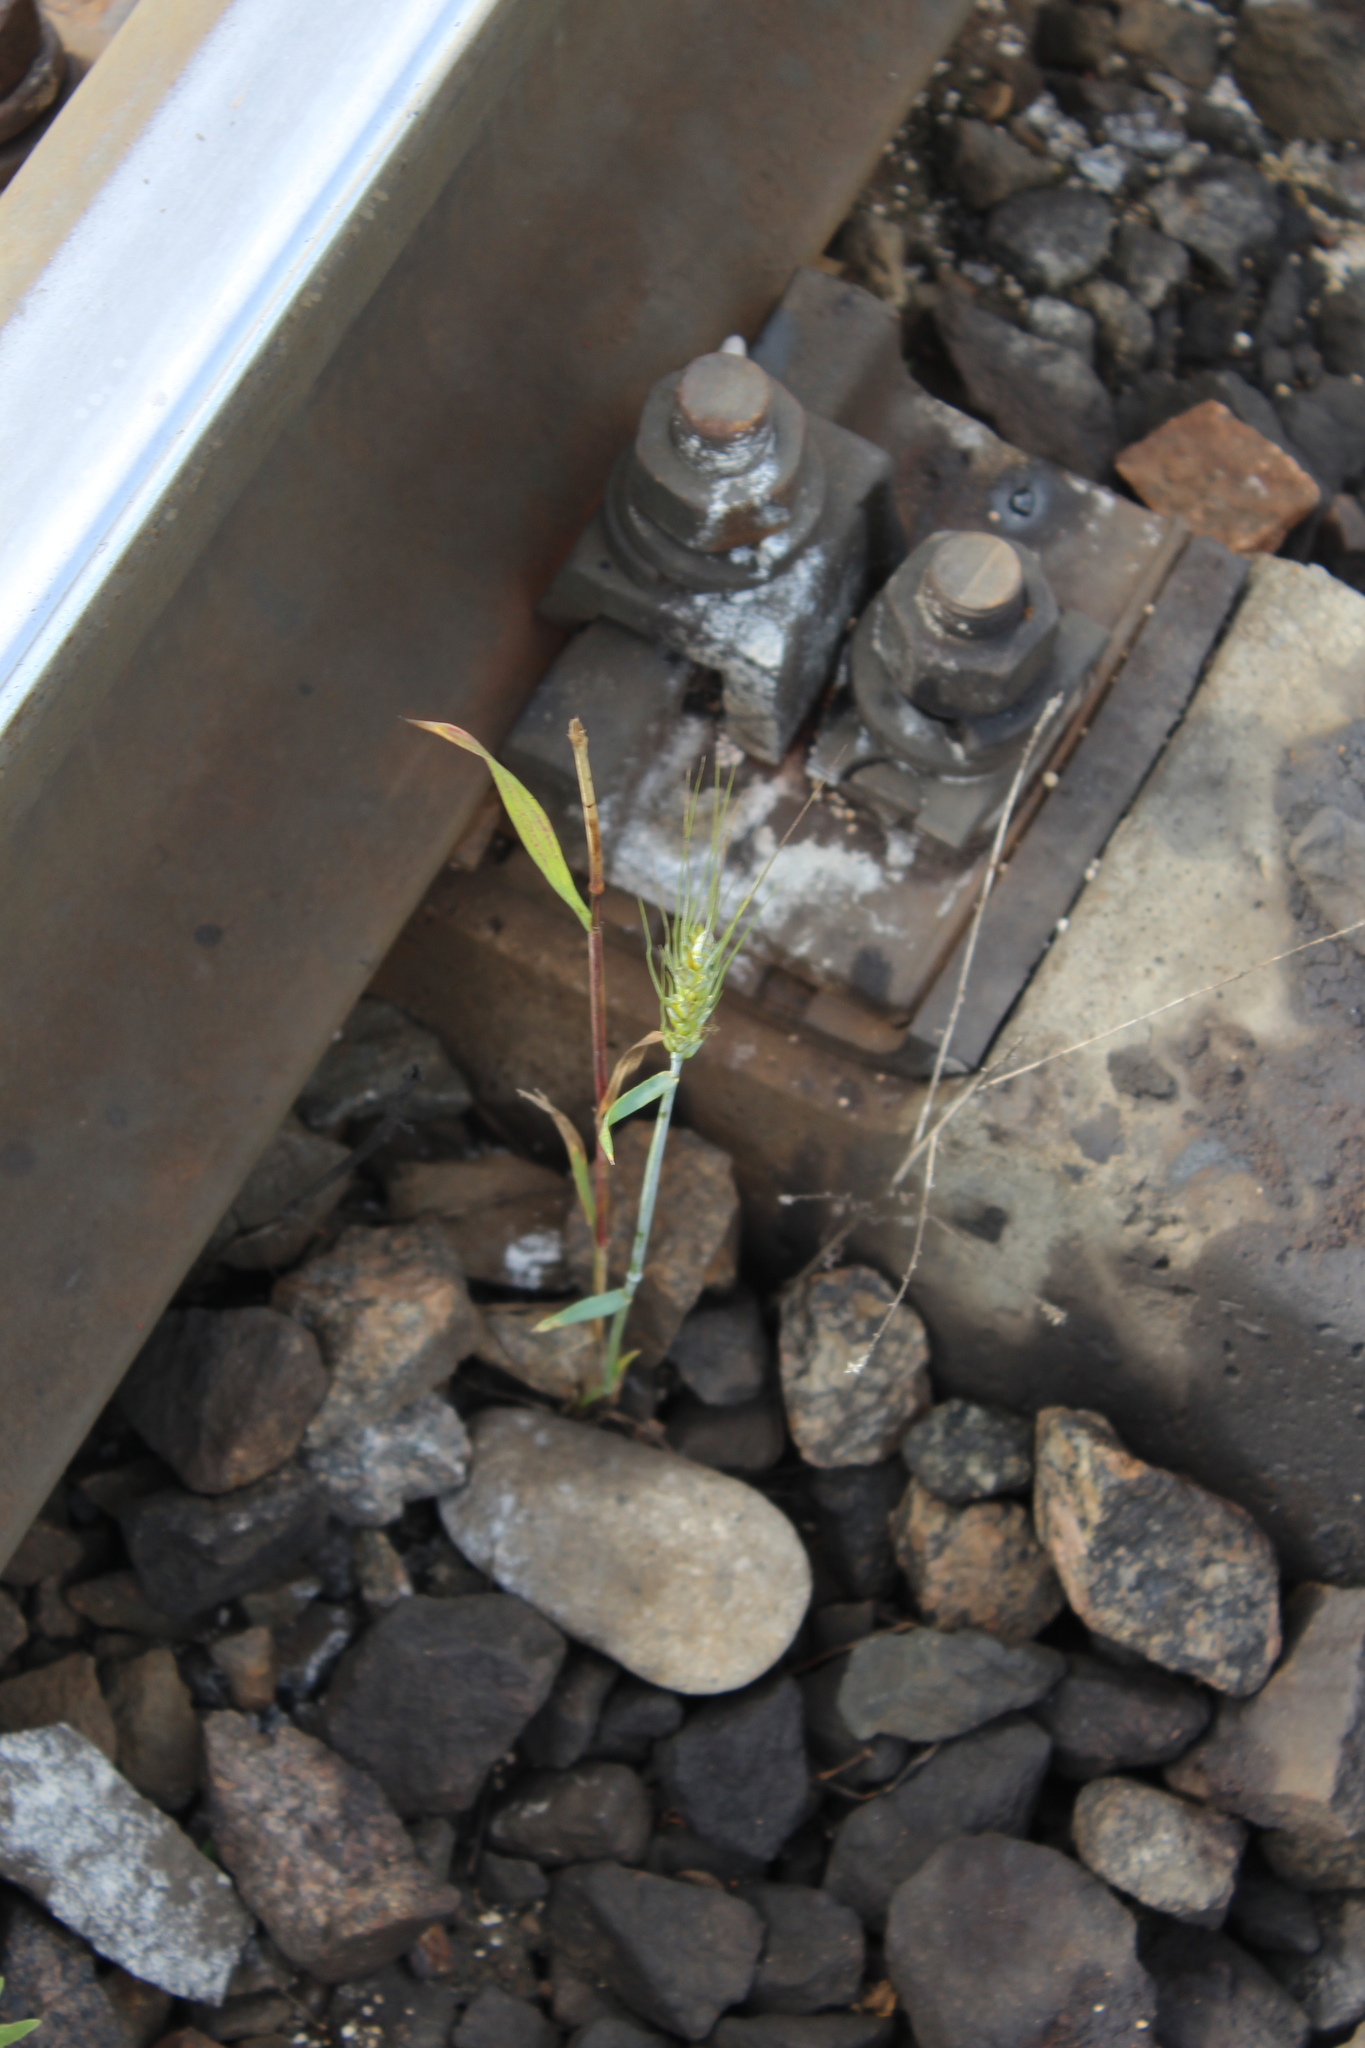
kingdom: Plantae
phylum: Tracheophyta
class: Liliopsida
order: Poales
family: Poaceae
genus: Triticum
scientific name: Triticum aestivum
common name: Common wheat
